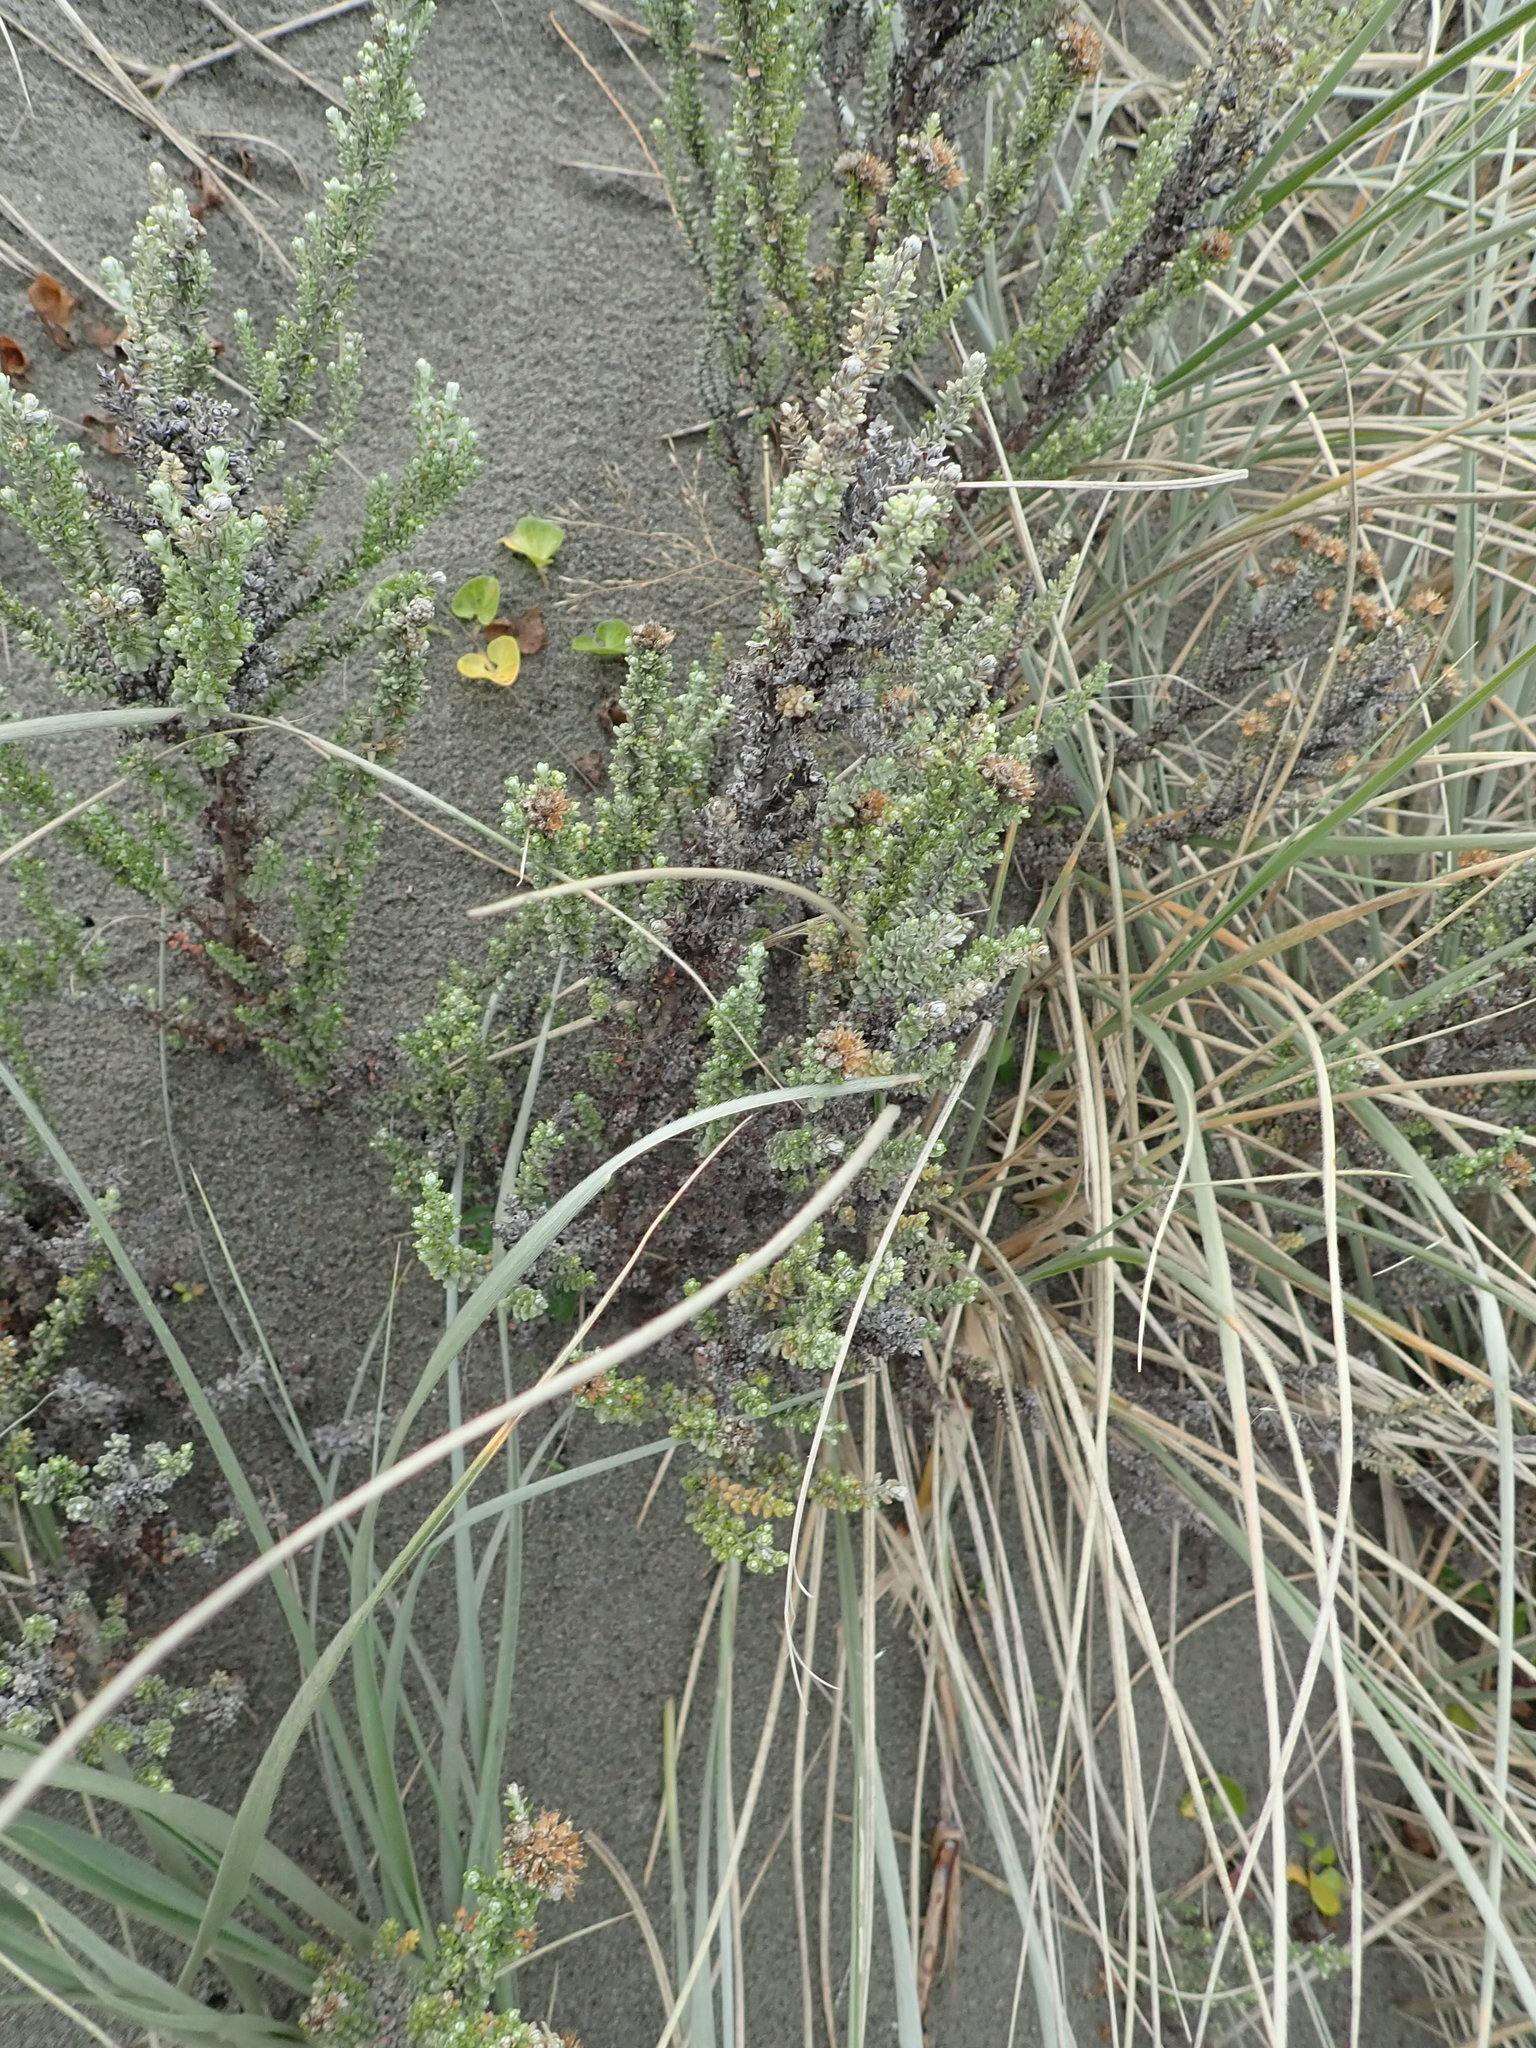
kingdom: Plantae
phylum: Tracheophyta
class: Magnoliopsida
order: Asterales
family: Asteraceae
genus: Ozothamnus
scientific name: Ozothamnus leptophyllus
